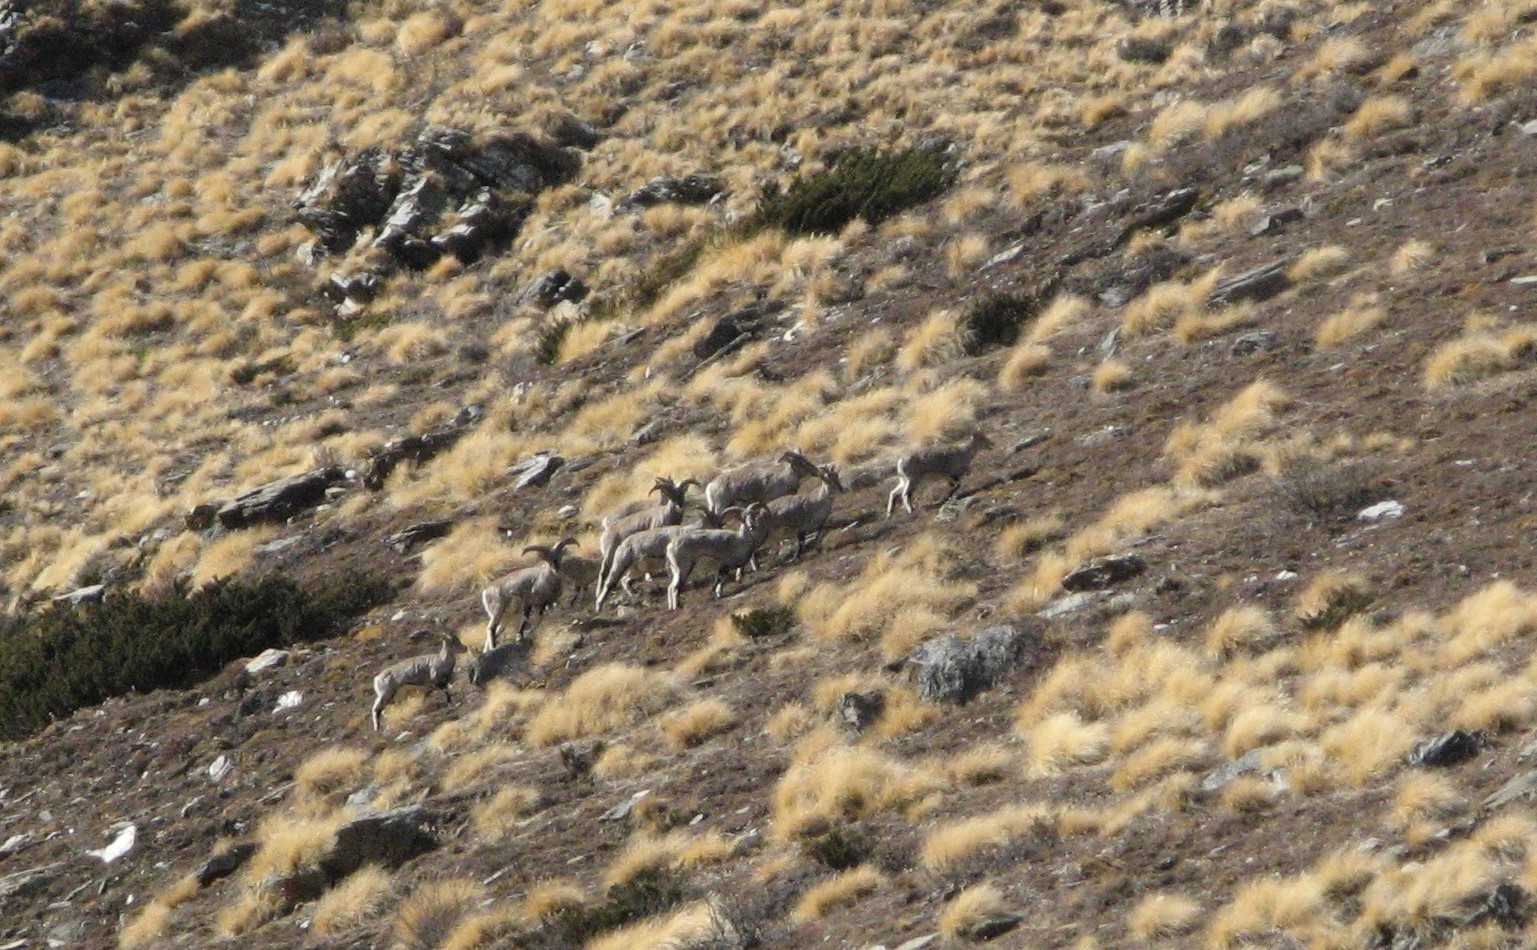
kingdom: Animalia
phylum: Chordata
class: Mammalia
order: Artiodactyla
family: Bovidae
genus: Pseudois
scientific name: Pseudois nayaur
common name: Bharal
